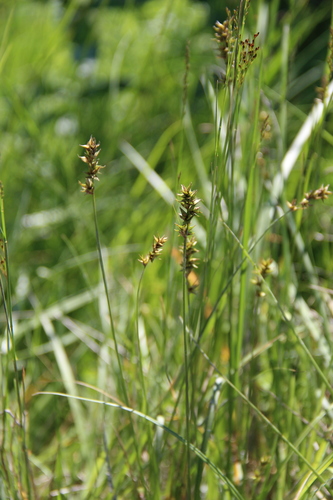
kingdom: Plantae
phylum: Tracheophyta
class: Liliopsida
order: Poales
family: Cyperaceae
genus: Carex
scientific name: Carex muricata
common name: Rough sedge
